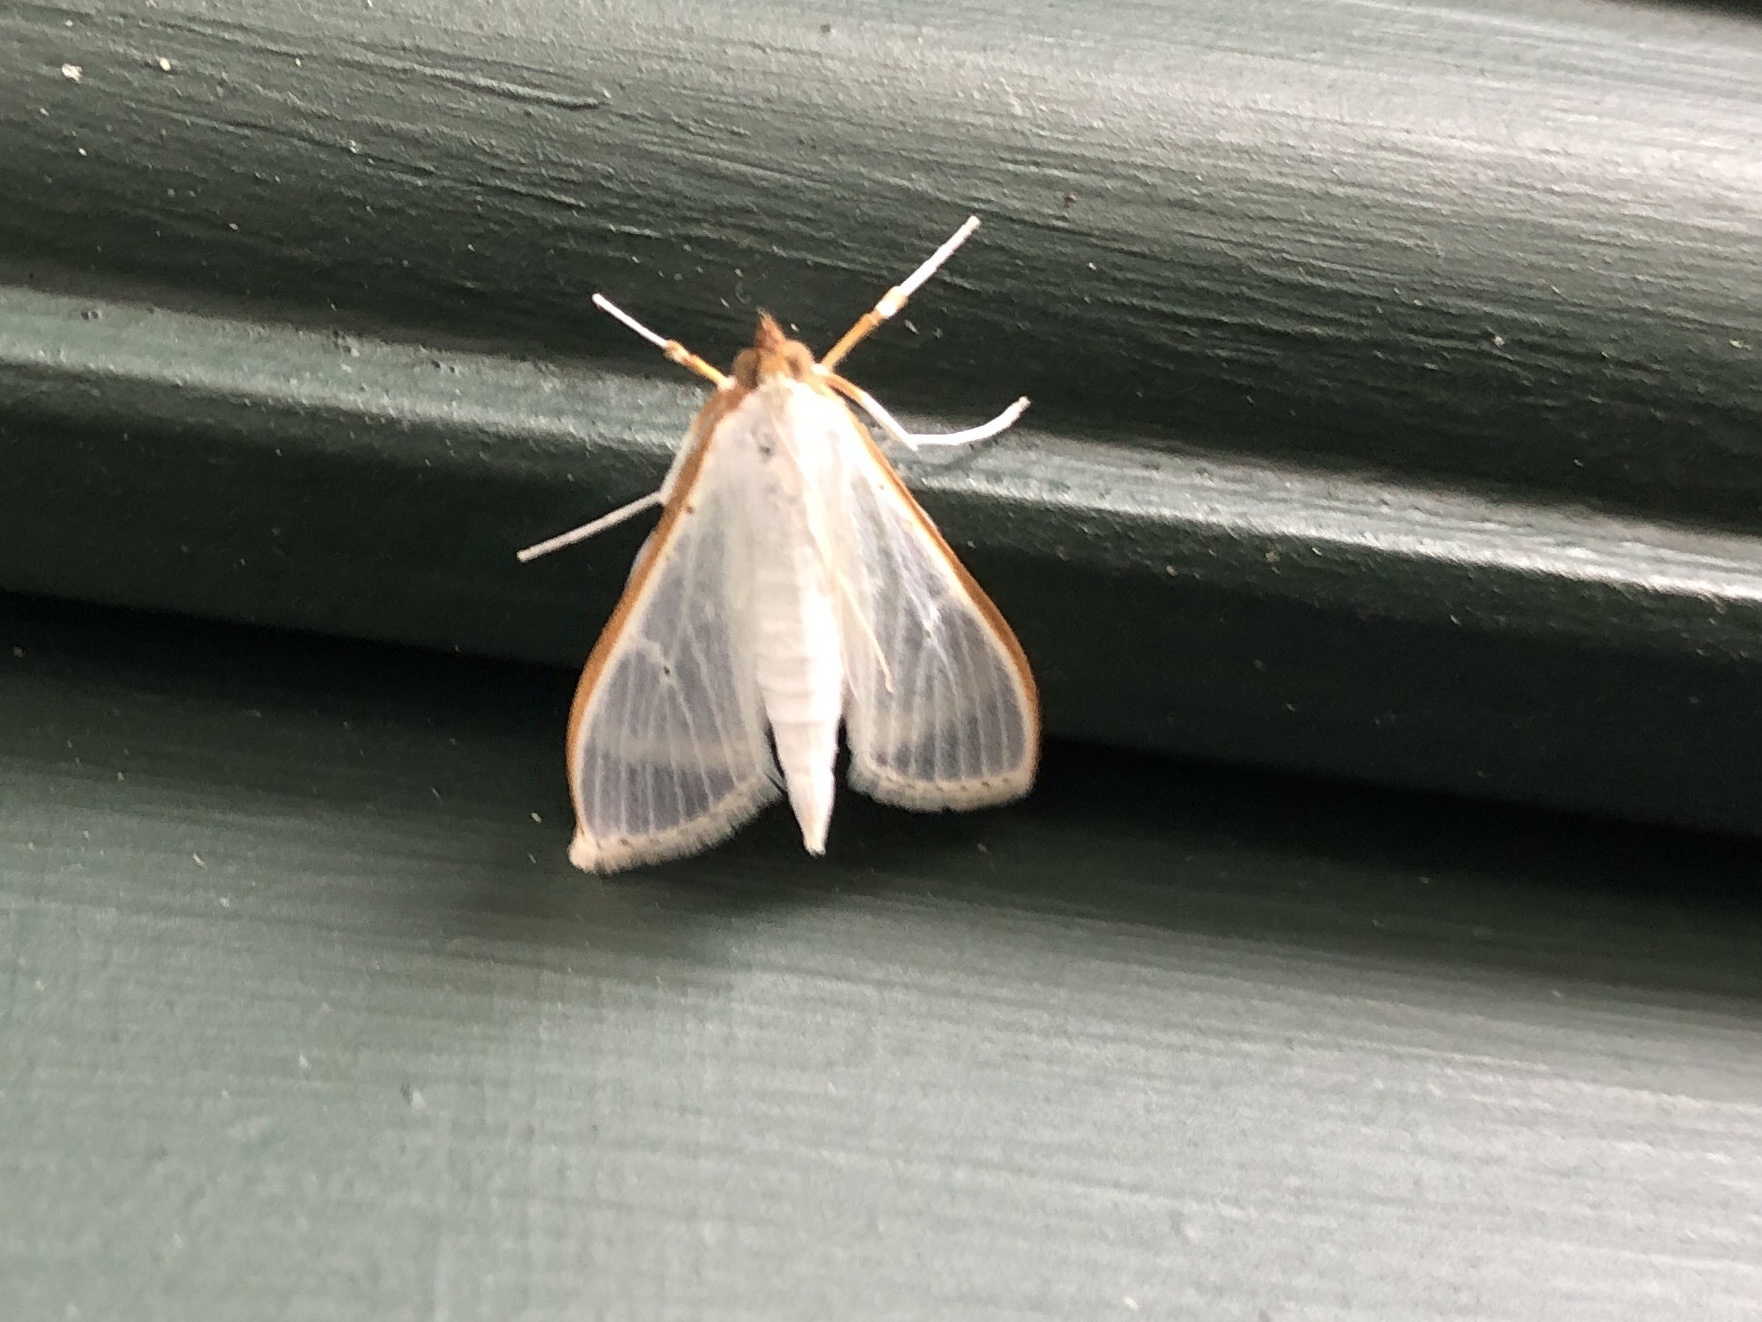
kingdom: Animalia
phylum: Arthropoda
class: Insecta
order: Lepidoptera
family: Crambidae
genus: Palpita
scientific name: Palpita vitrealis
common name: Olive-tree pearl
